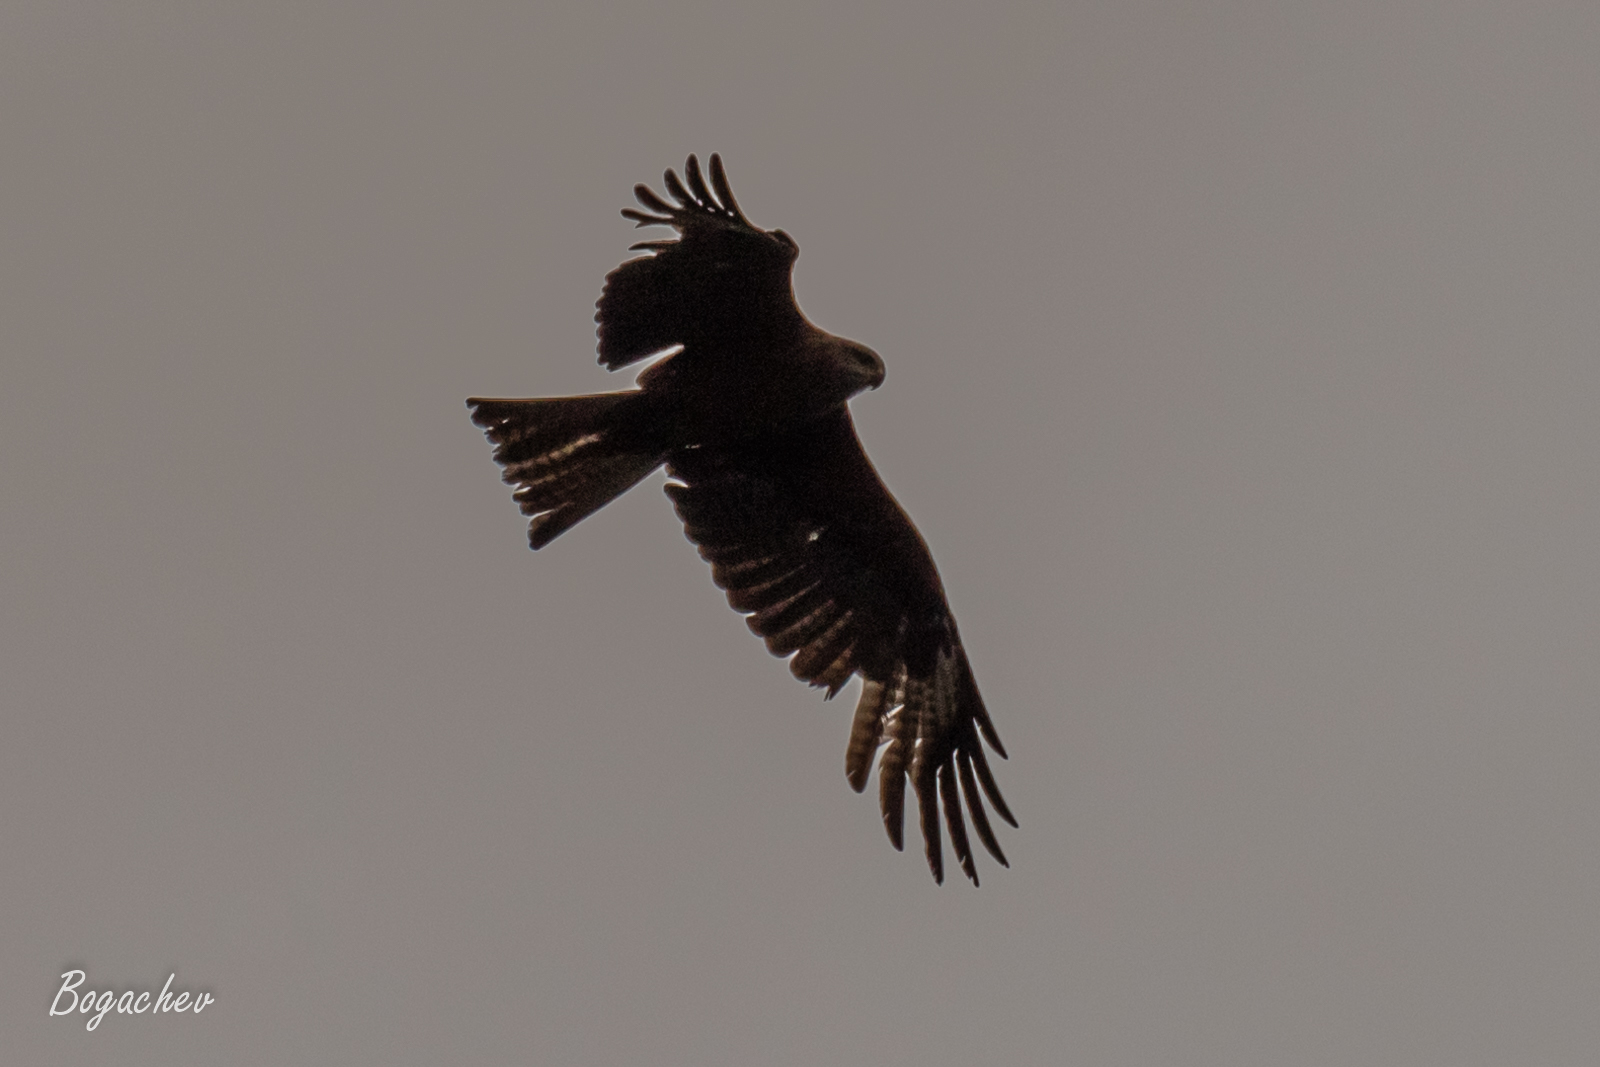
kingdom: Animalia
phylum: Chordata
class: Aves
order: Accipitriformes
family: Accipitridae
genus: Milvus
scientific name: Milvus migrans
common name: Black kite
